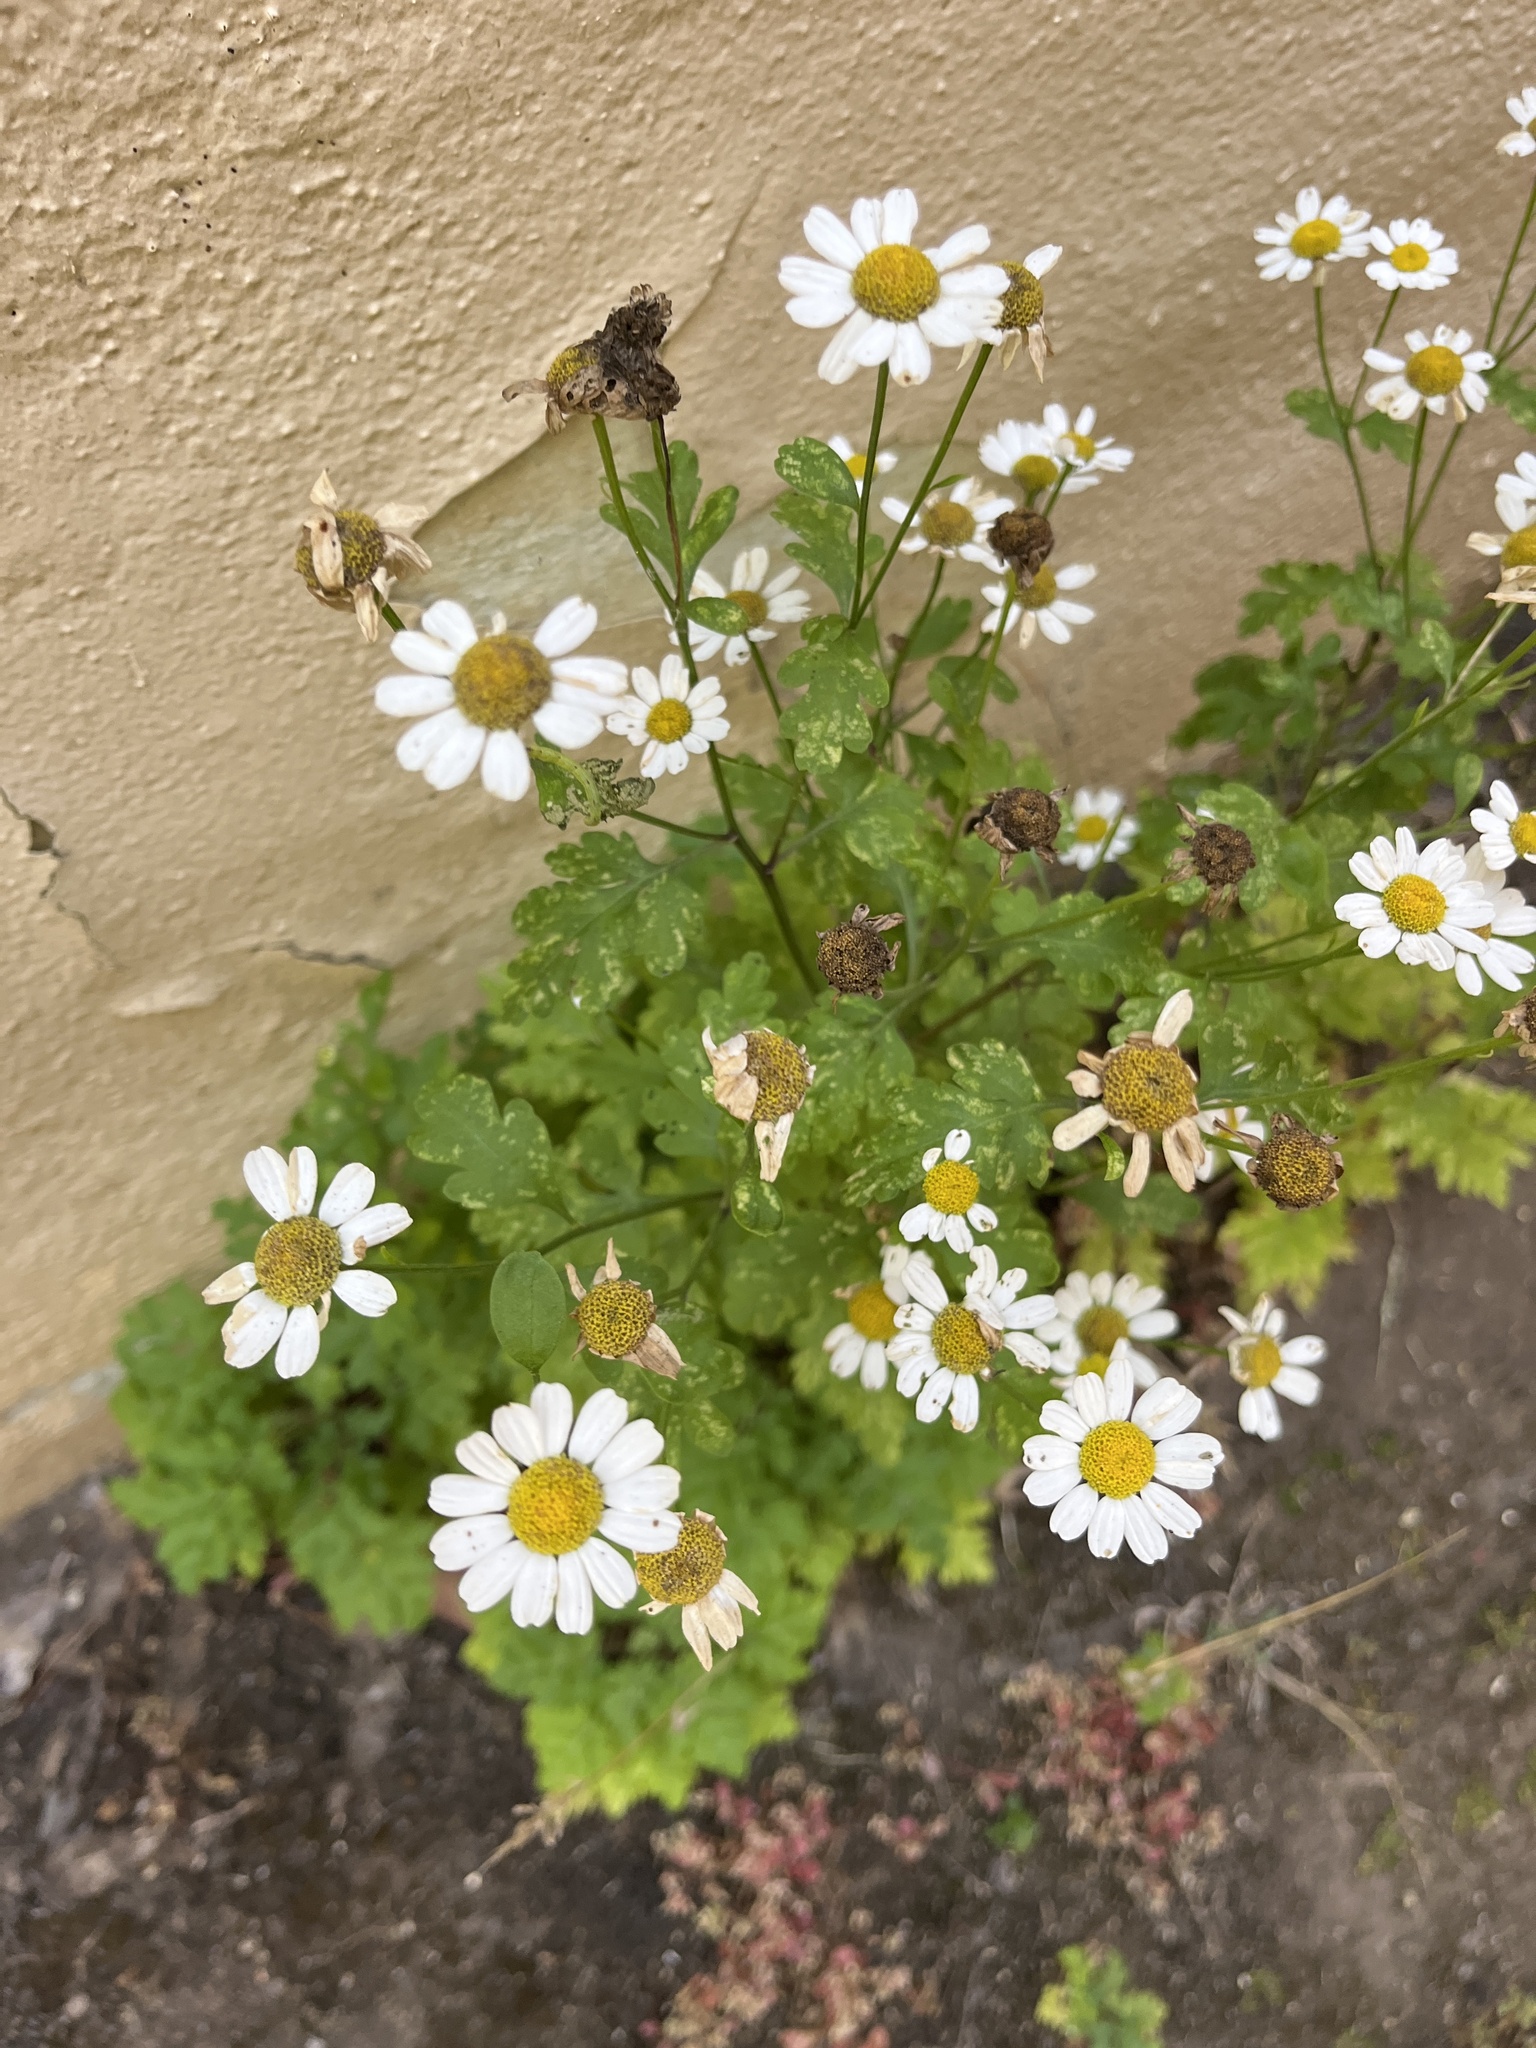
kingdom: Plantae
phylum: Tracheophyta
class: Magnoliopsida
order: Asterales
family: Asteraceae
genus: Tanacetum
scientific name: Tanacetum parthenium
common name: Feverfew
